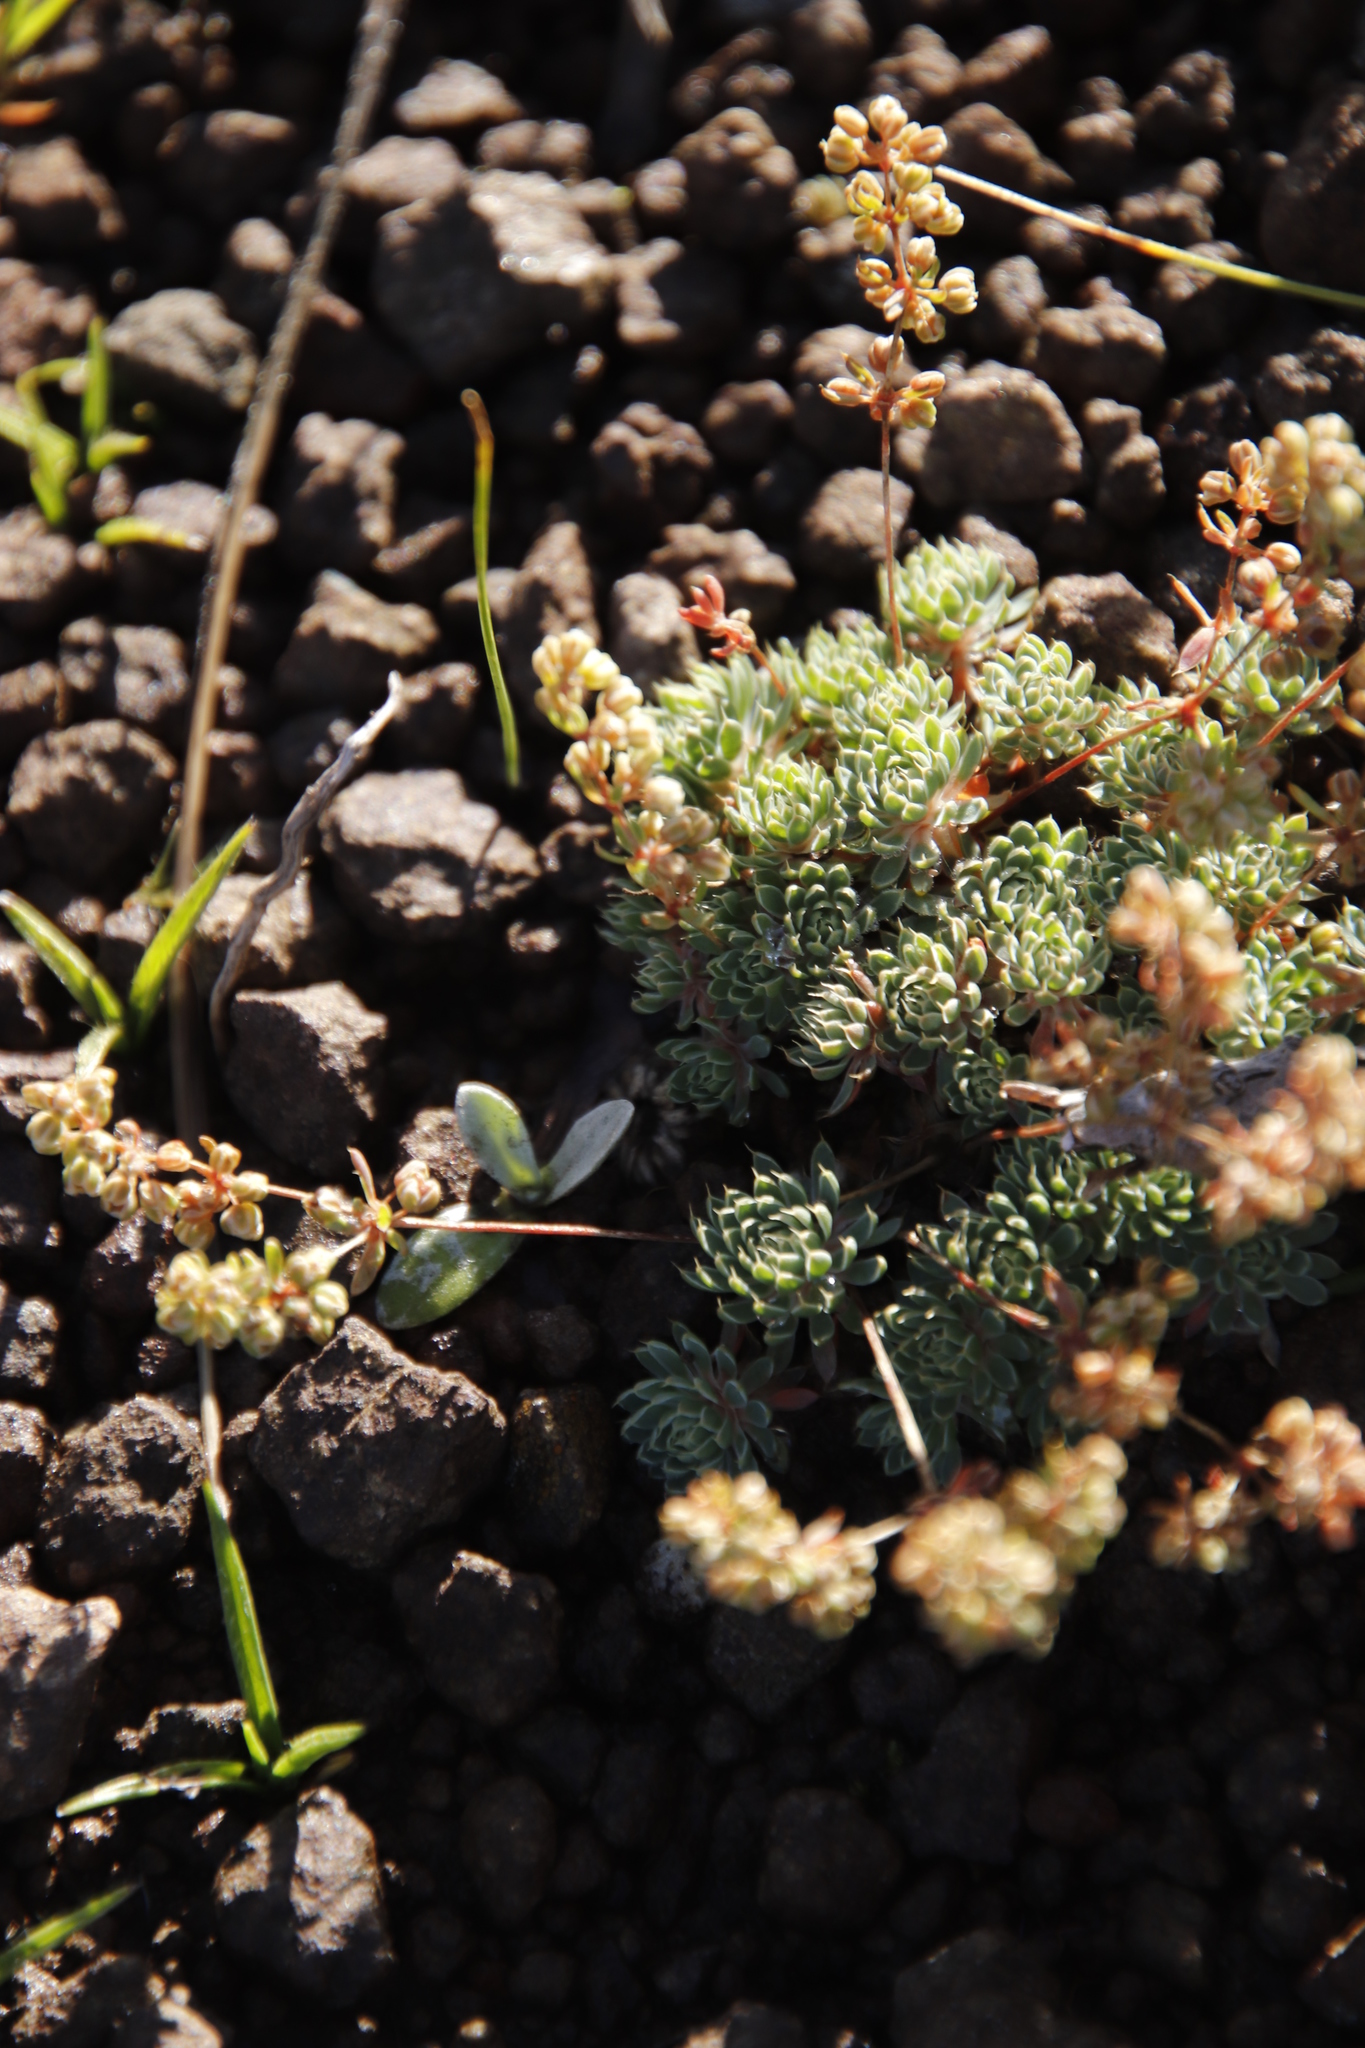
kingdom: Plantae
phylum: Tracheophyta
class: Magnoliopsida
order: Caryophyllales
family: Molluginaceae
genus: Psammotropha
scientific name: Psammotropha mucronata
